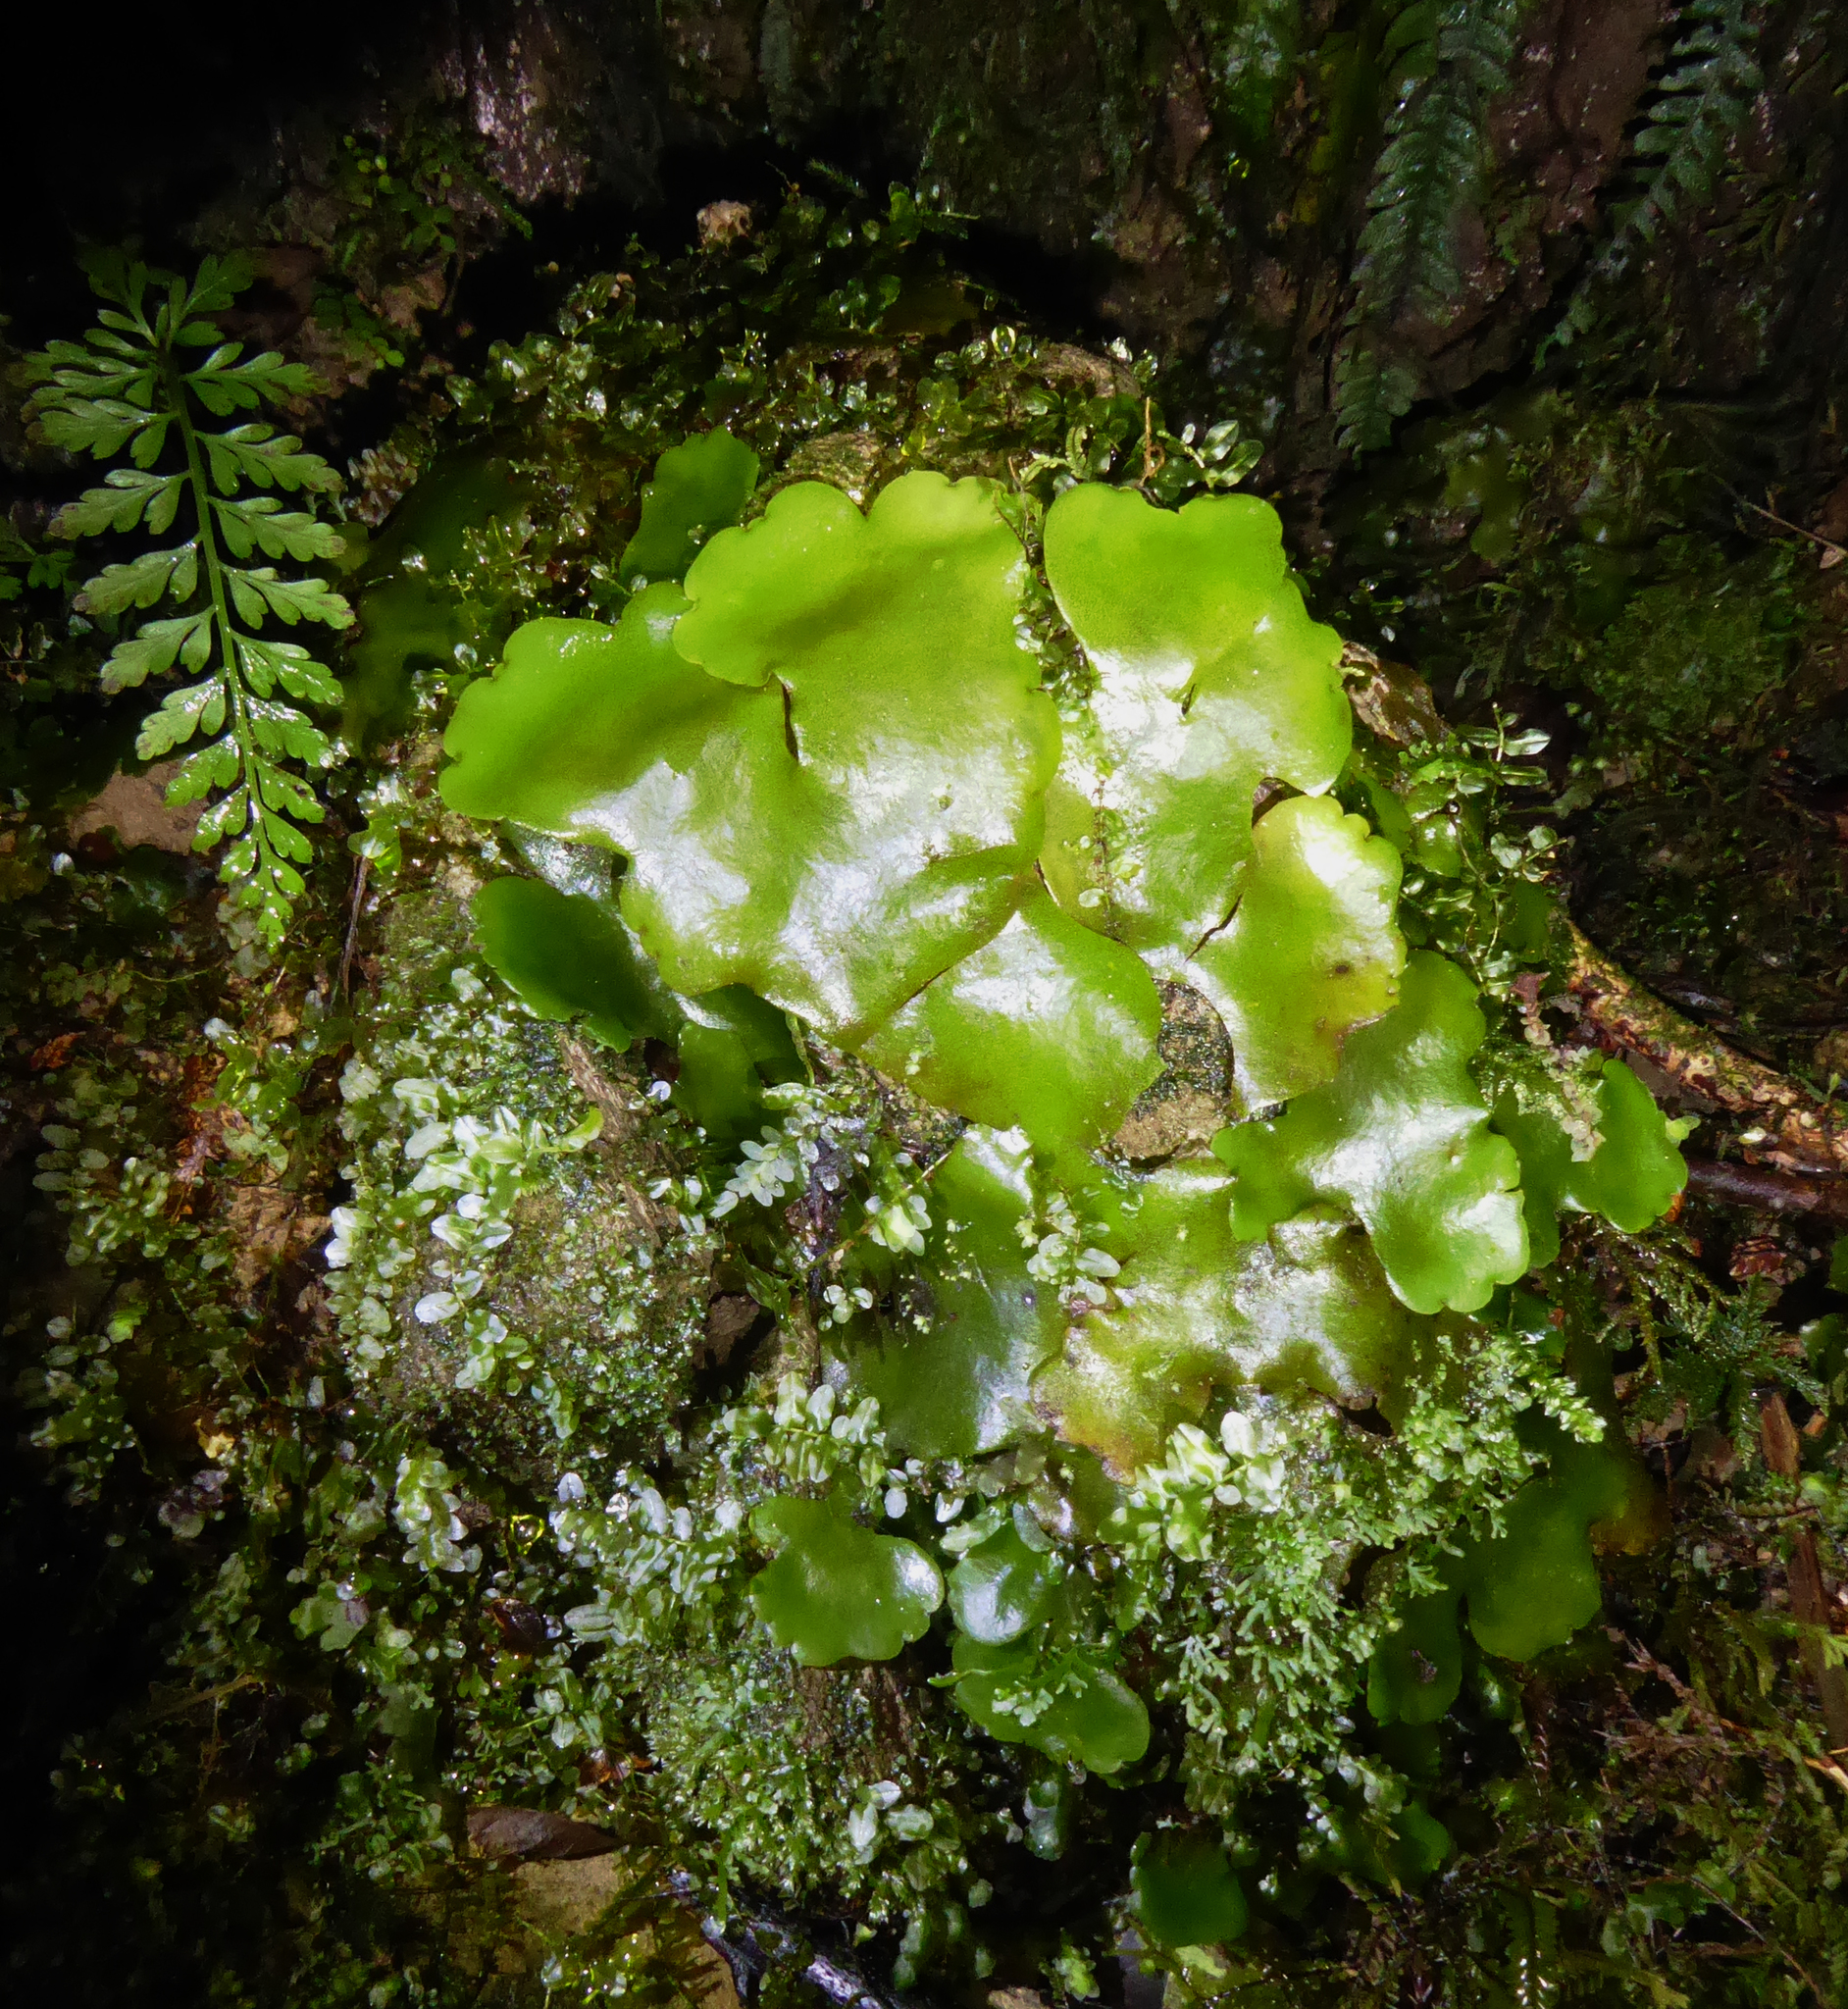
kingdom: Plantae
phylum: Marchantiophyta
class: Marchantiopsida
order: Marchantiales
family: Monocleaceae
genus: Monoclea
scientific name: Monoclea forsteri
